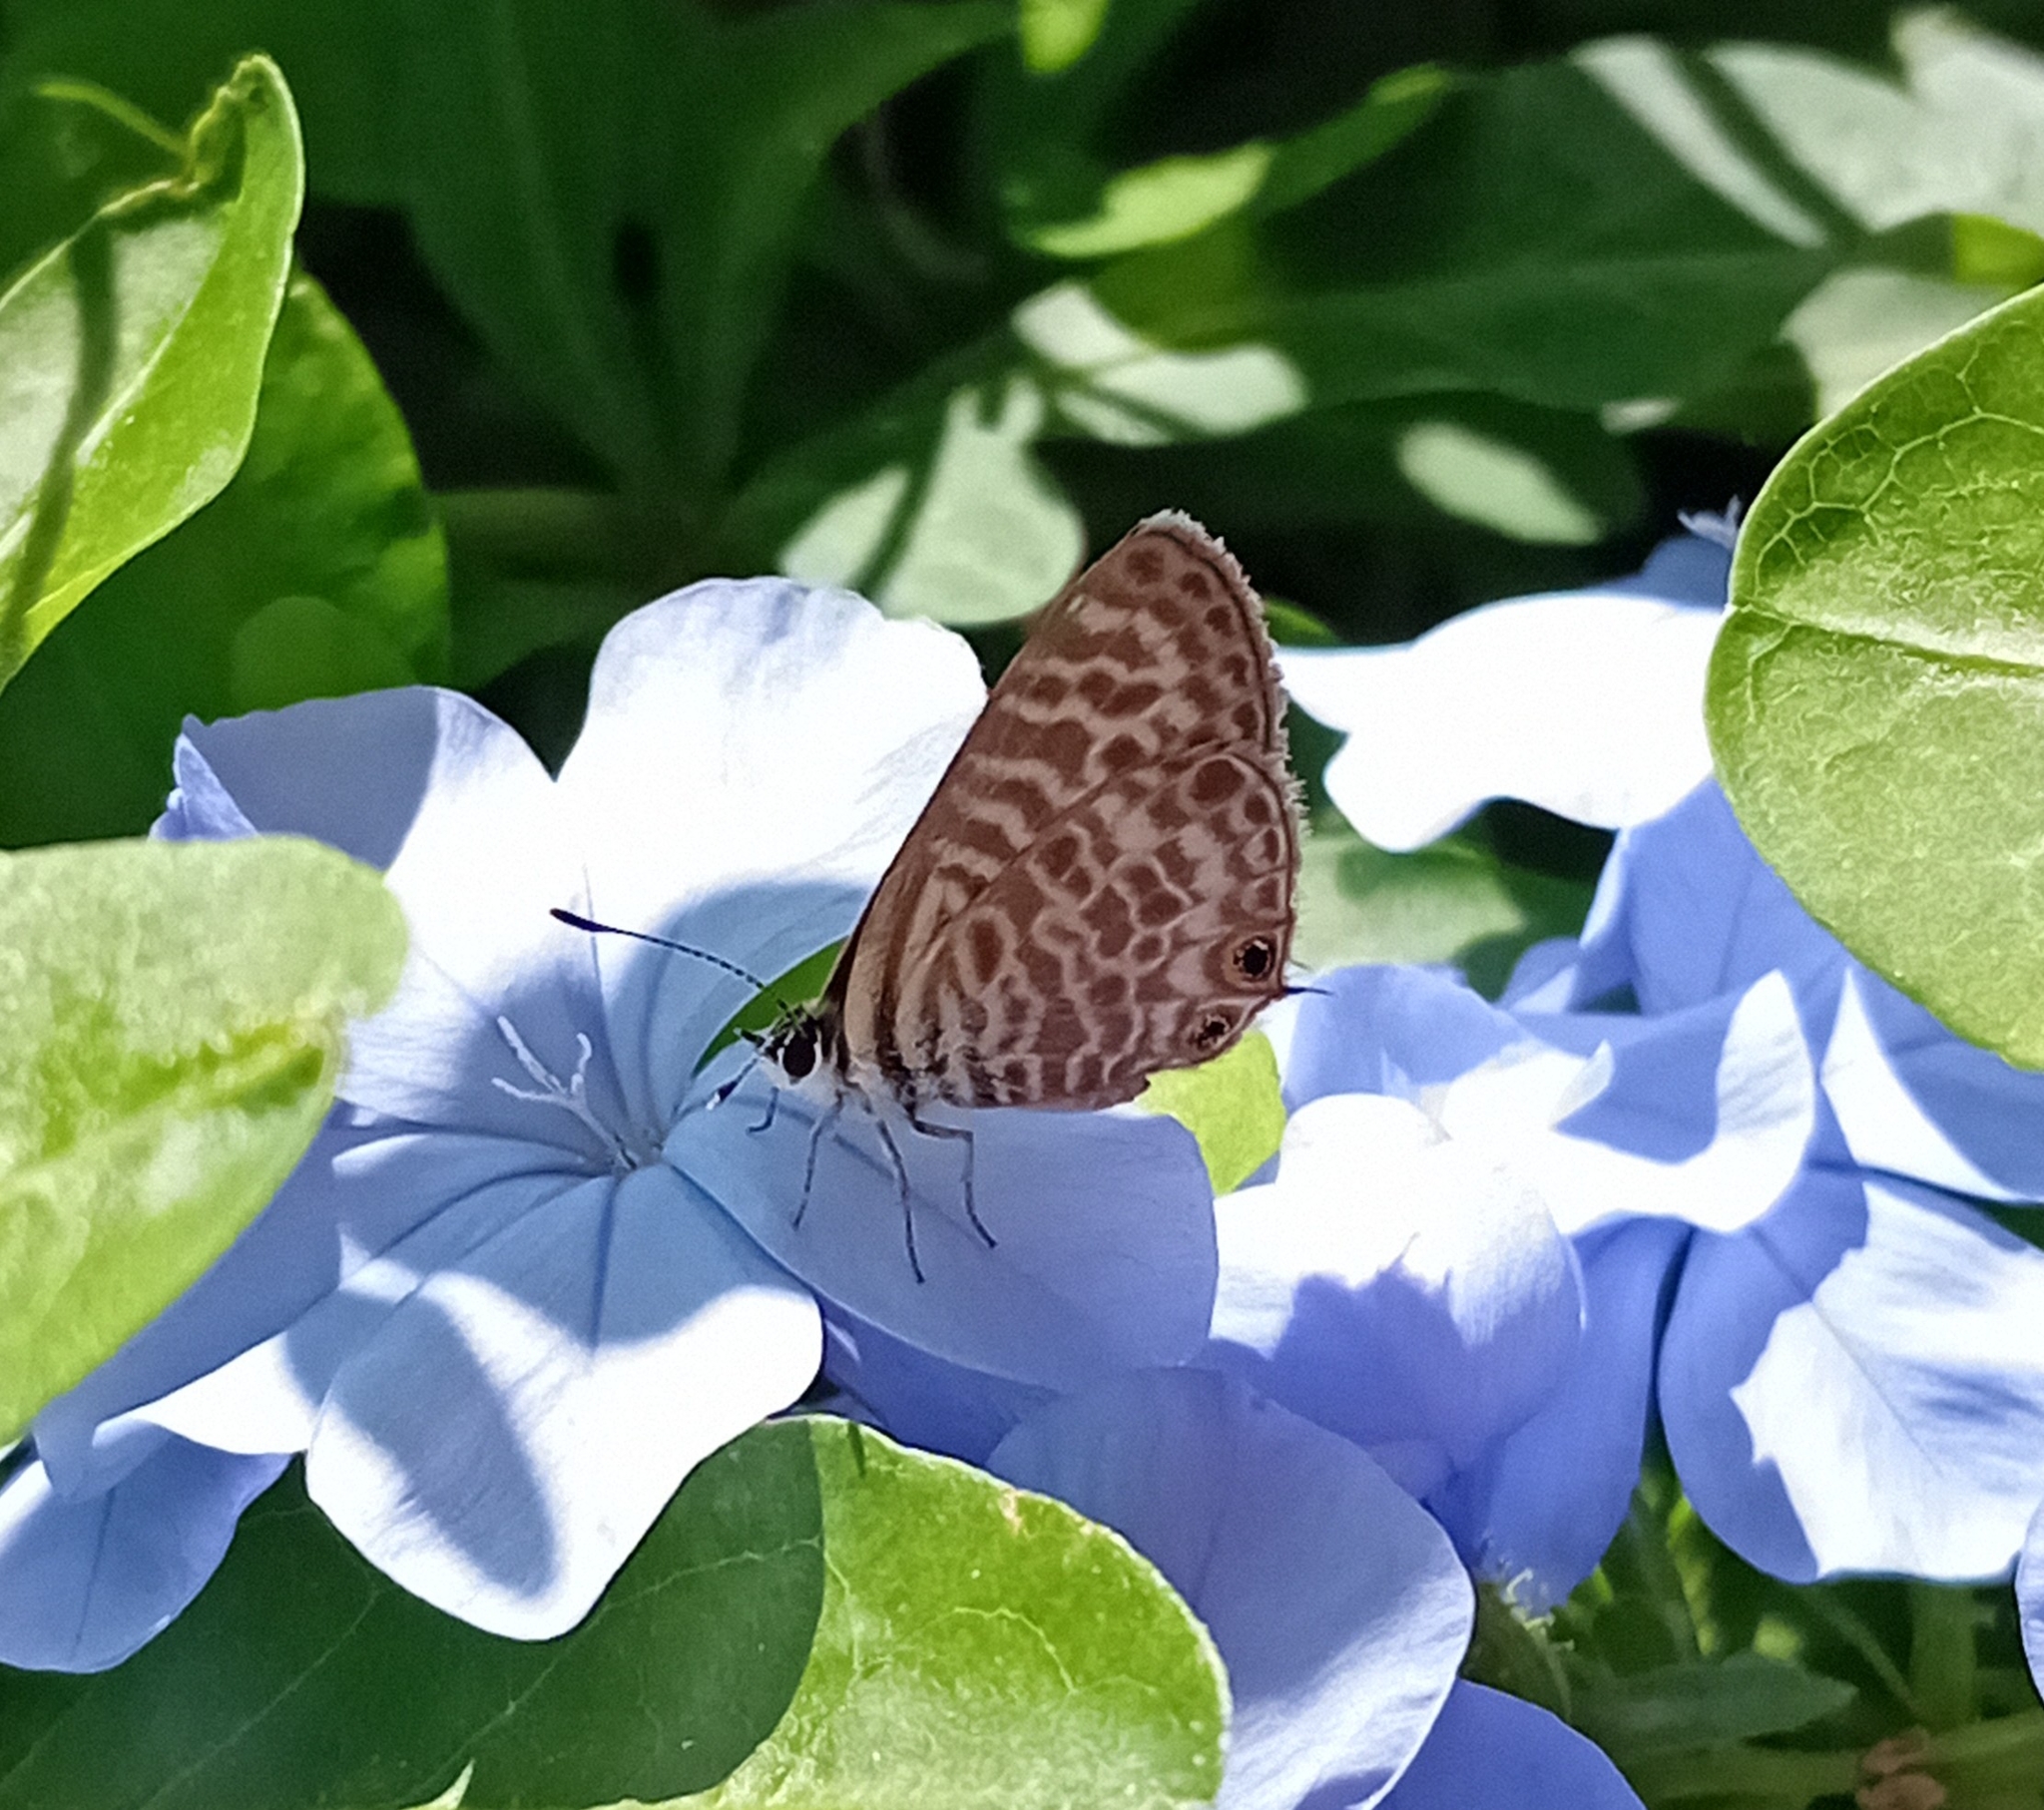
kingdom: Animalia
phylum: Arthropoda
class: Insecta
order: Lepidoptera
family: Lycaenidae
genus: Leptotes
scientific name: Leptotes pirithous
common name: Lang's short-tailed blue
